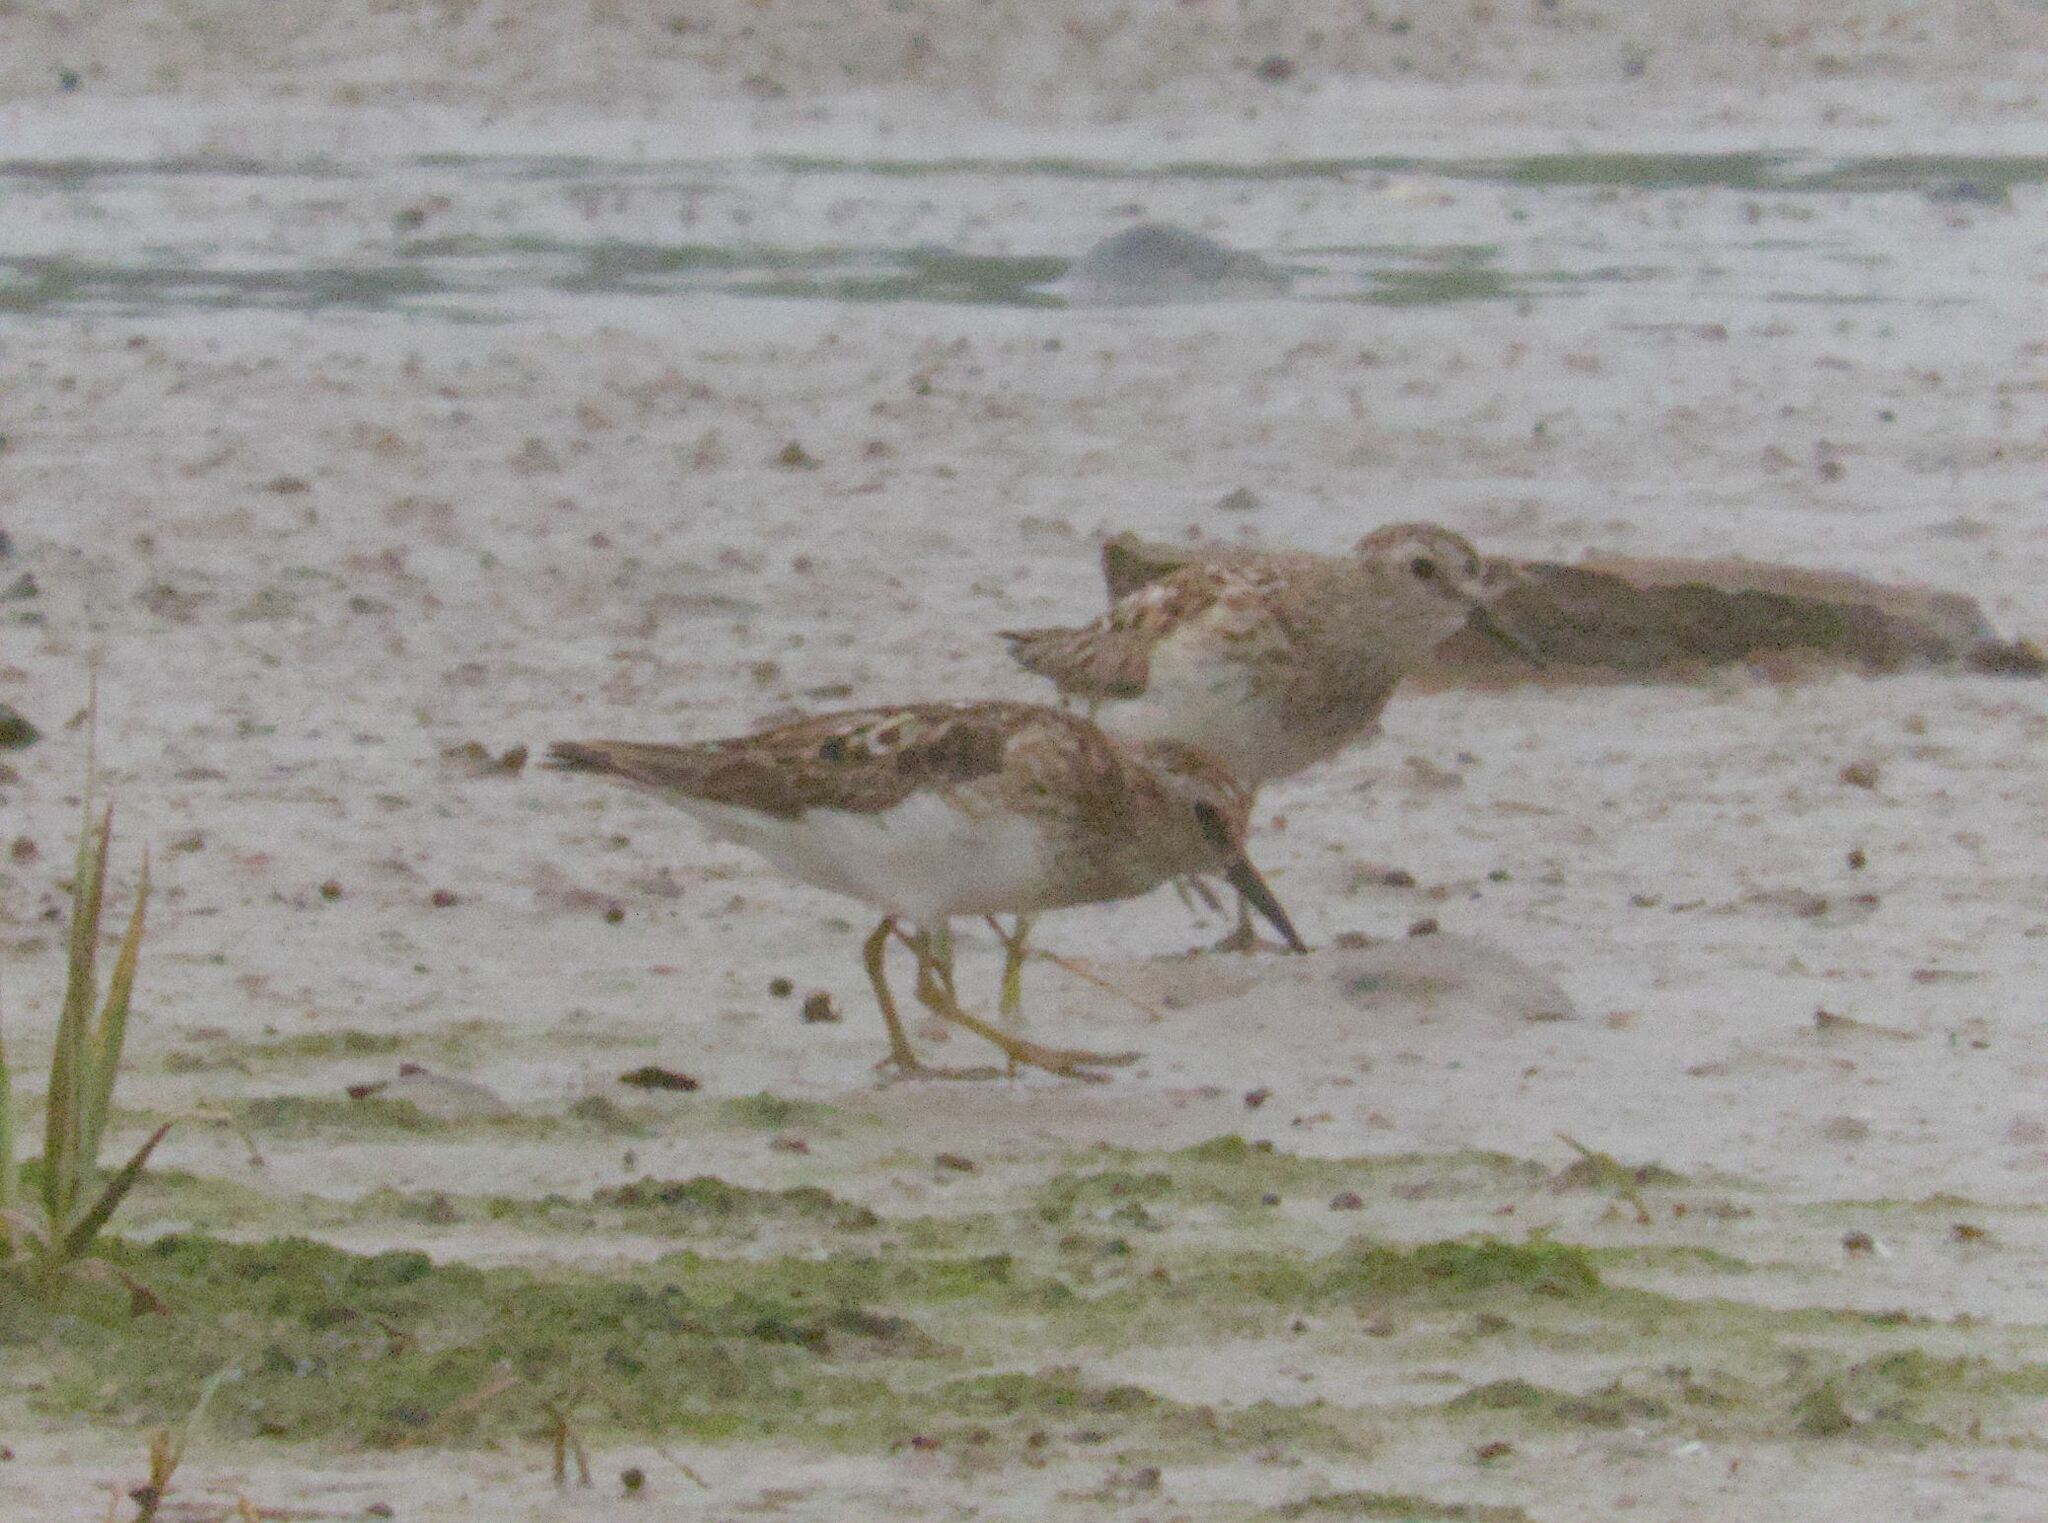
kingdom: Animalia
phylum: Chordata
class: Aves
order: Charadriiformes
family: Scolopacidae
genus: Calidris
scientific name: Calidris minutilla
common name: Least sandpiper
